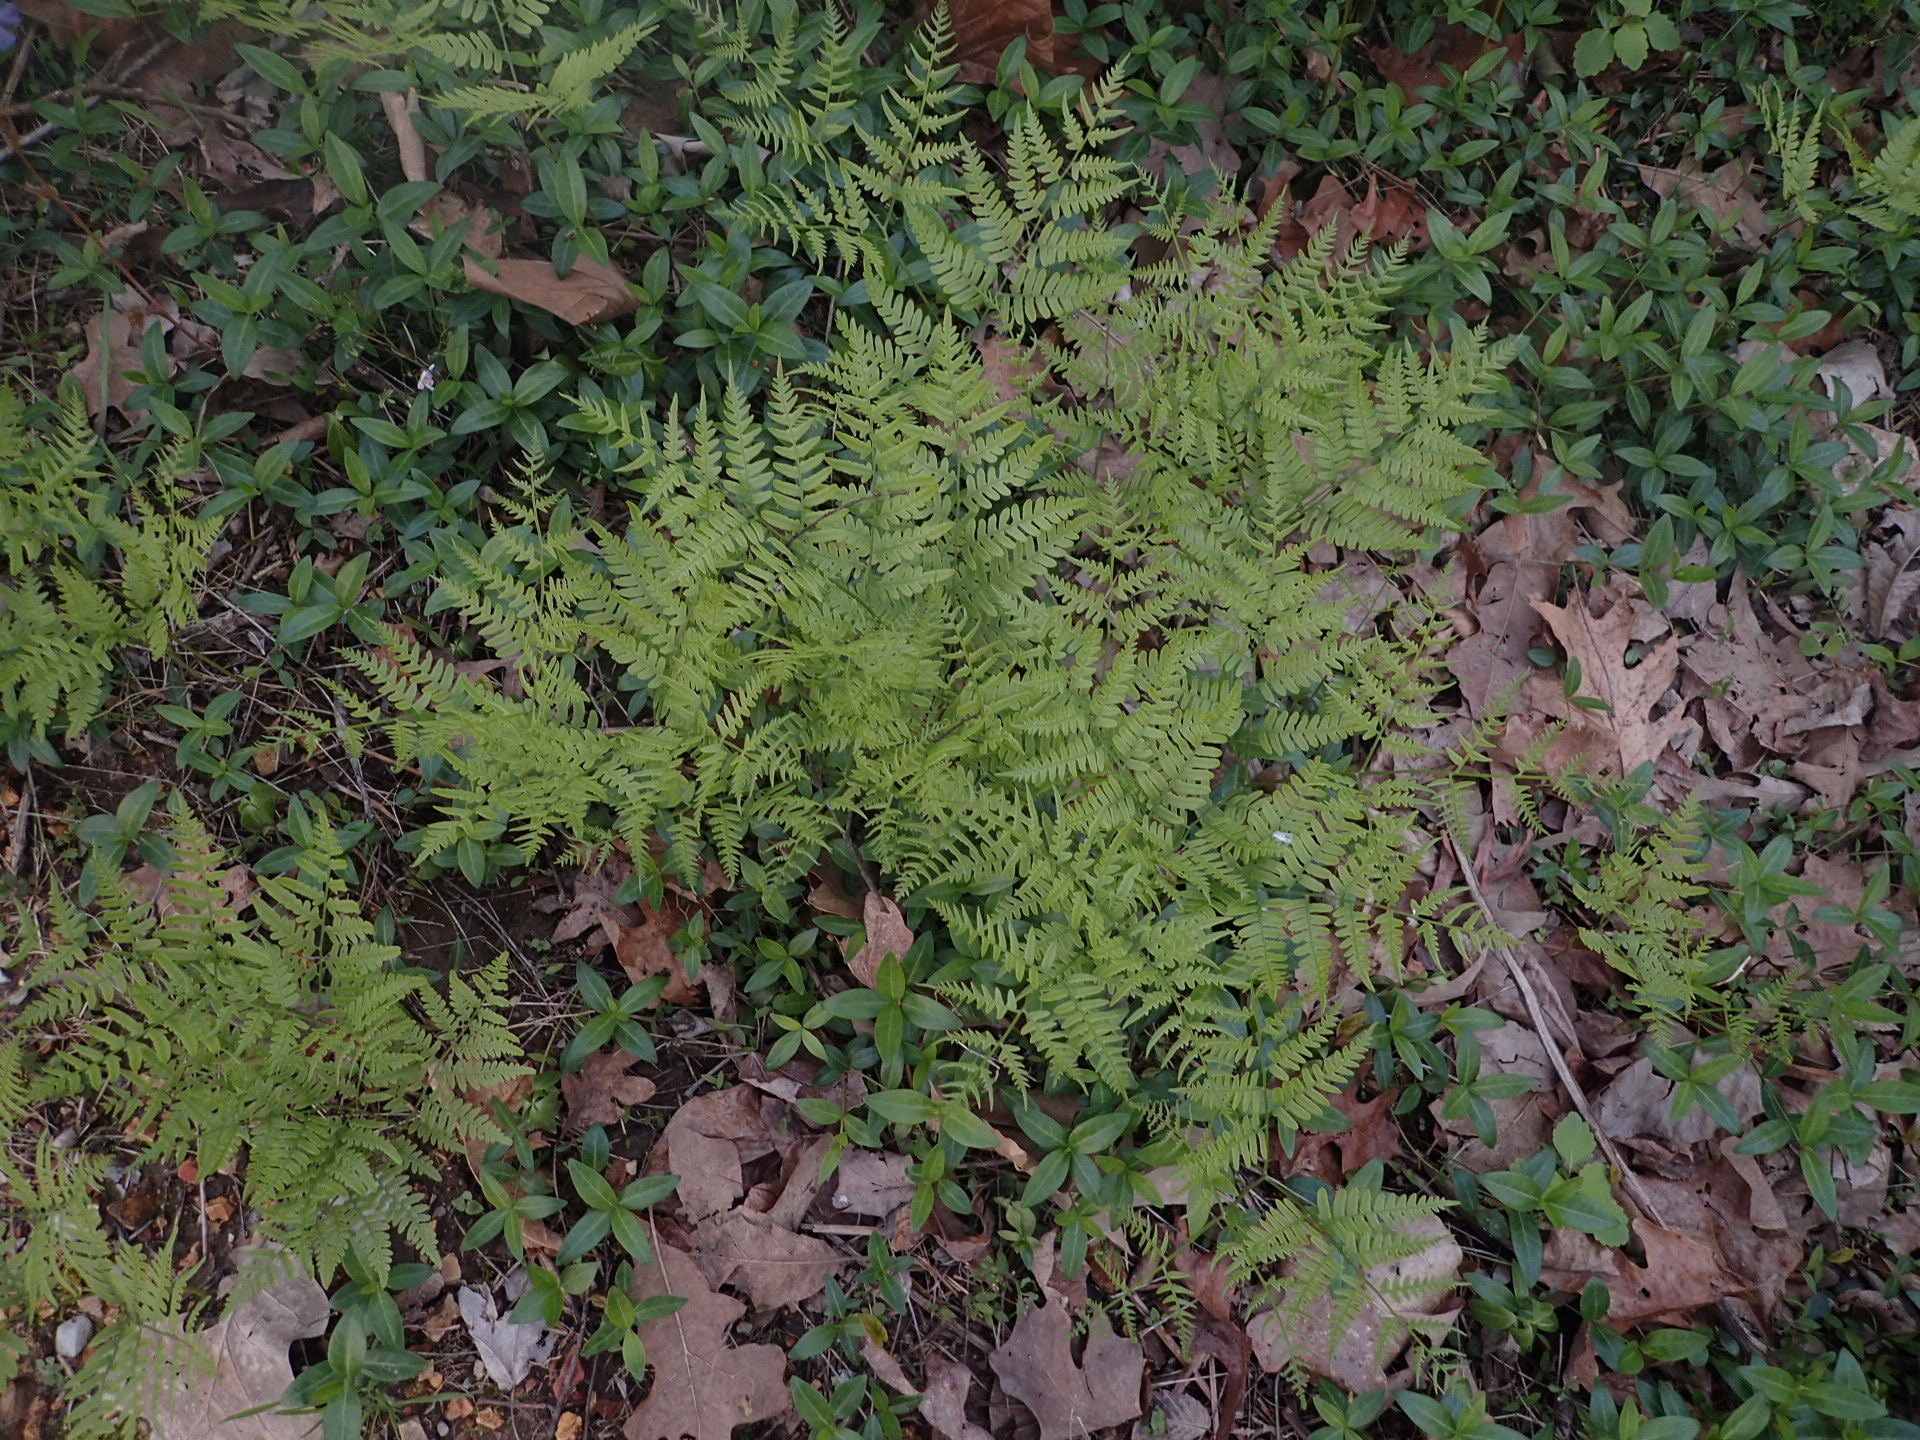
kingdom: Plantae
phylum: Tracheophyta
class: Polypodiopsida
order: Polypodiales
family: Dennstaedtiaceae
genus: Pteridium
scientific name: Pteridium aquilinum
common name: Bracken
